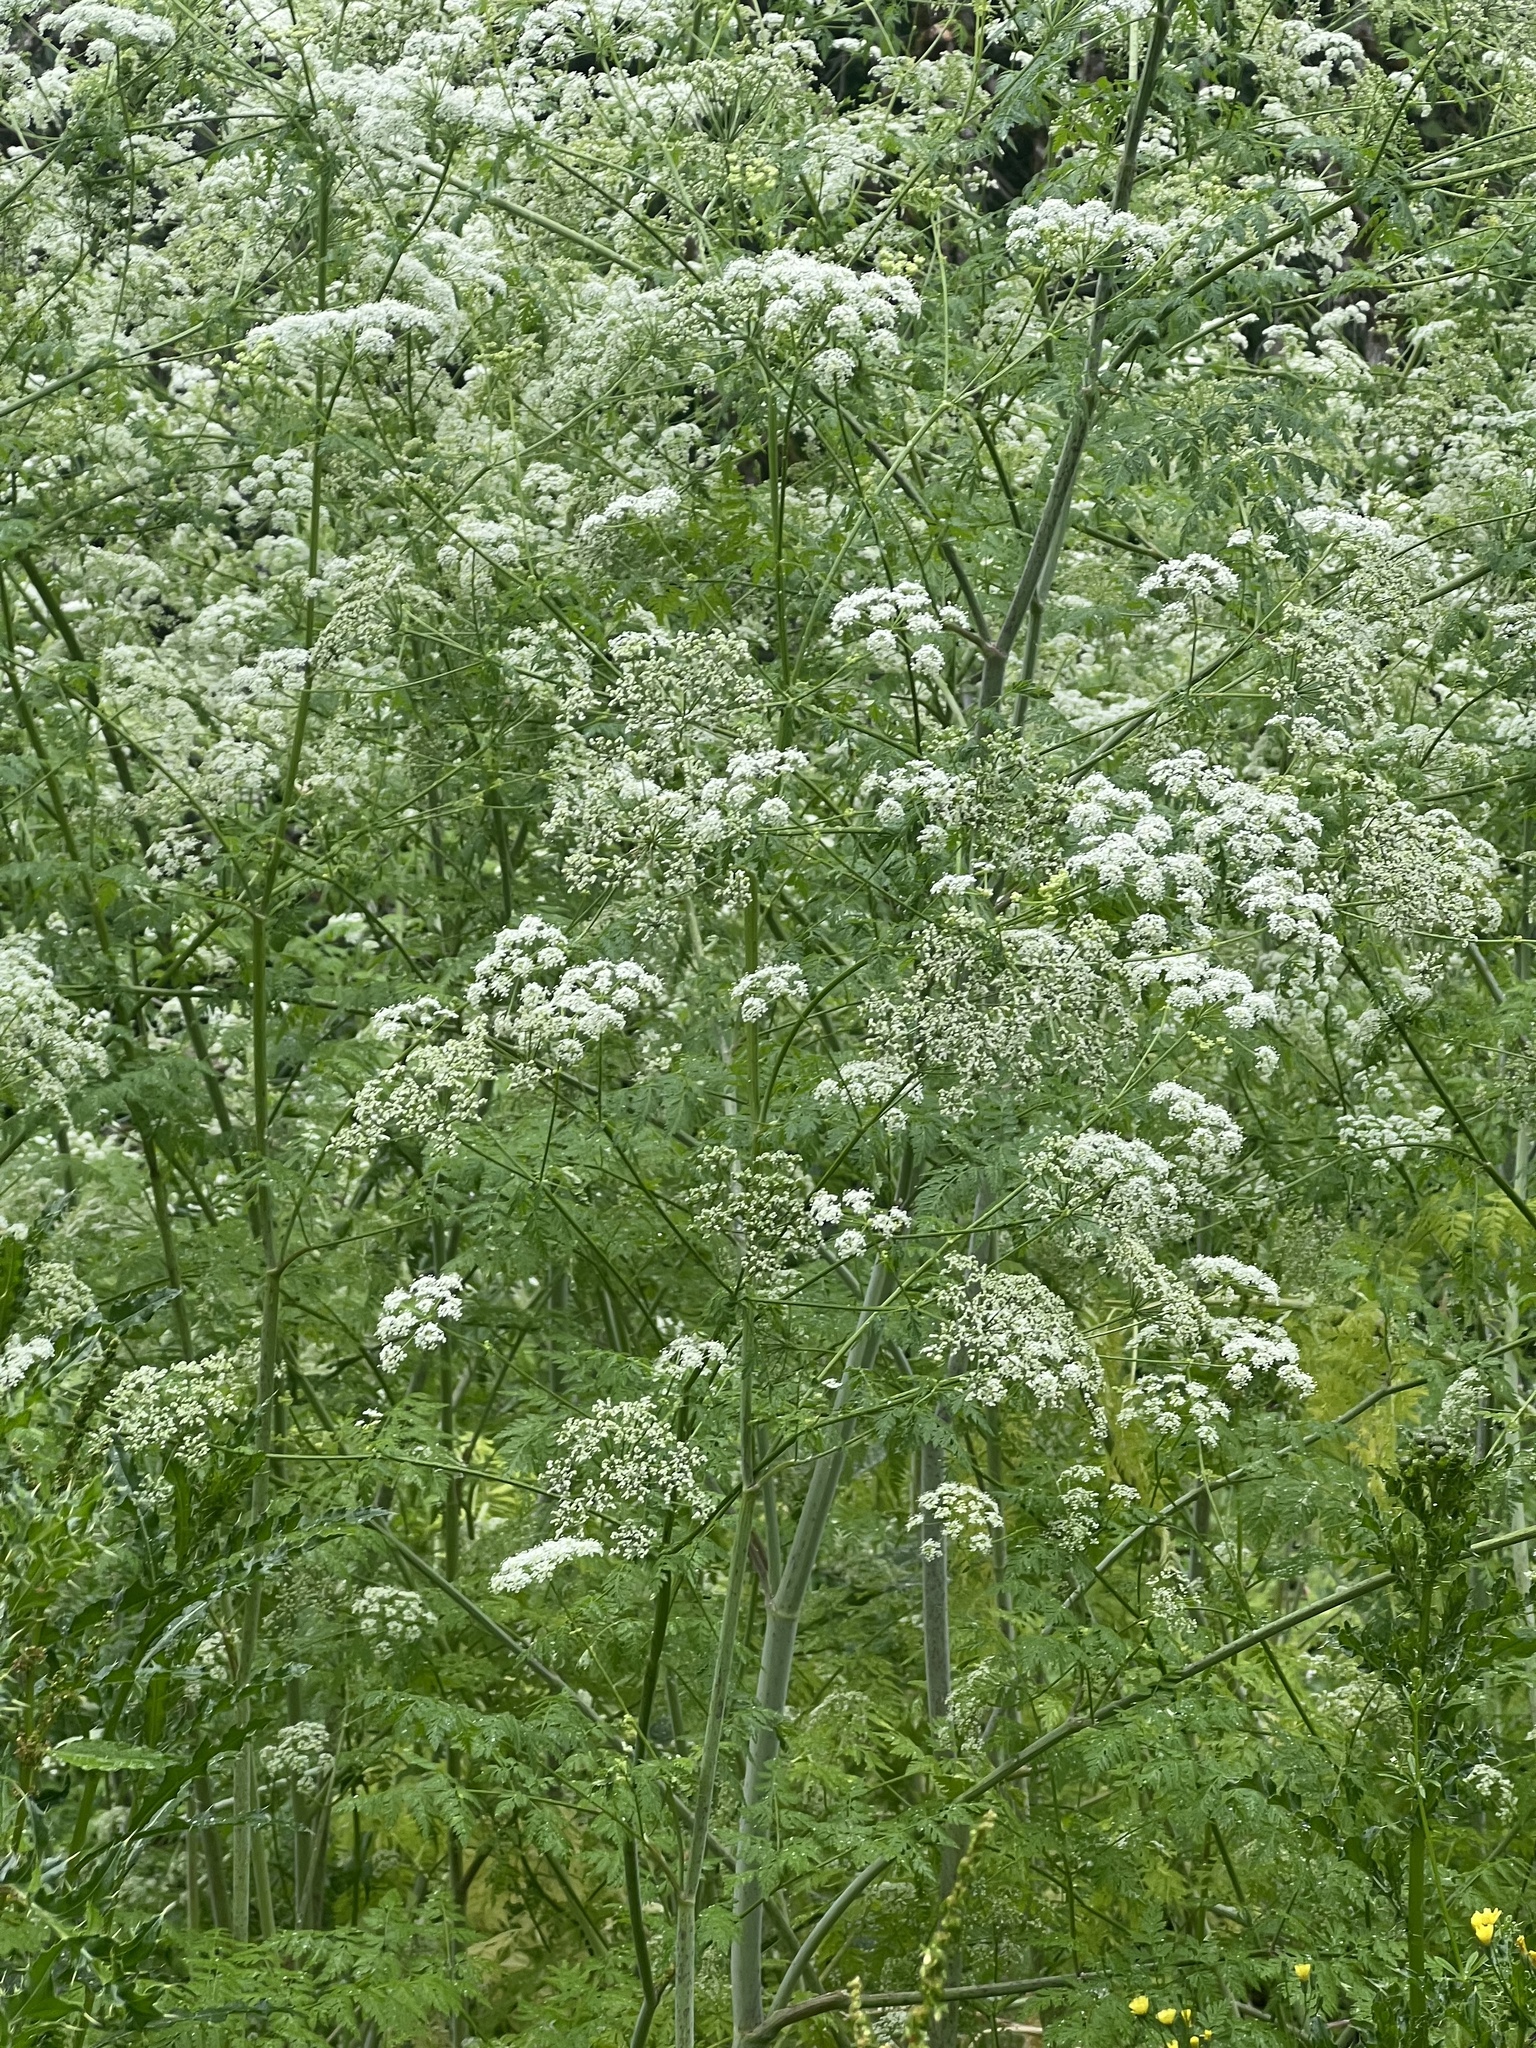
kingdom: Plantae
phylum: Tracheophyta
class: Magnoliopsida
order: Apiales
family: Apiaceae
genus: Conium
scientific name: Conium maculatum
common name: Hemlock
